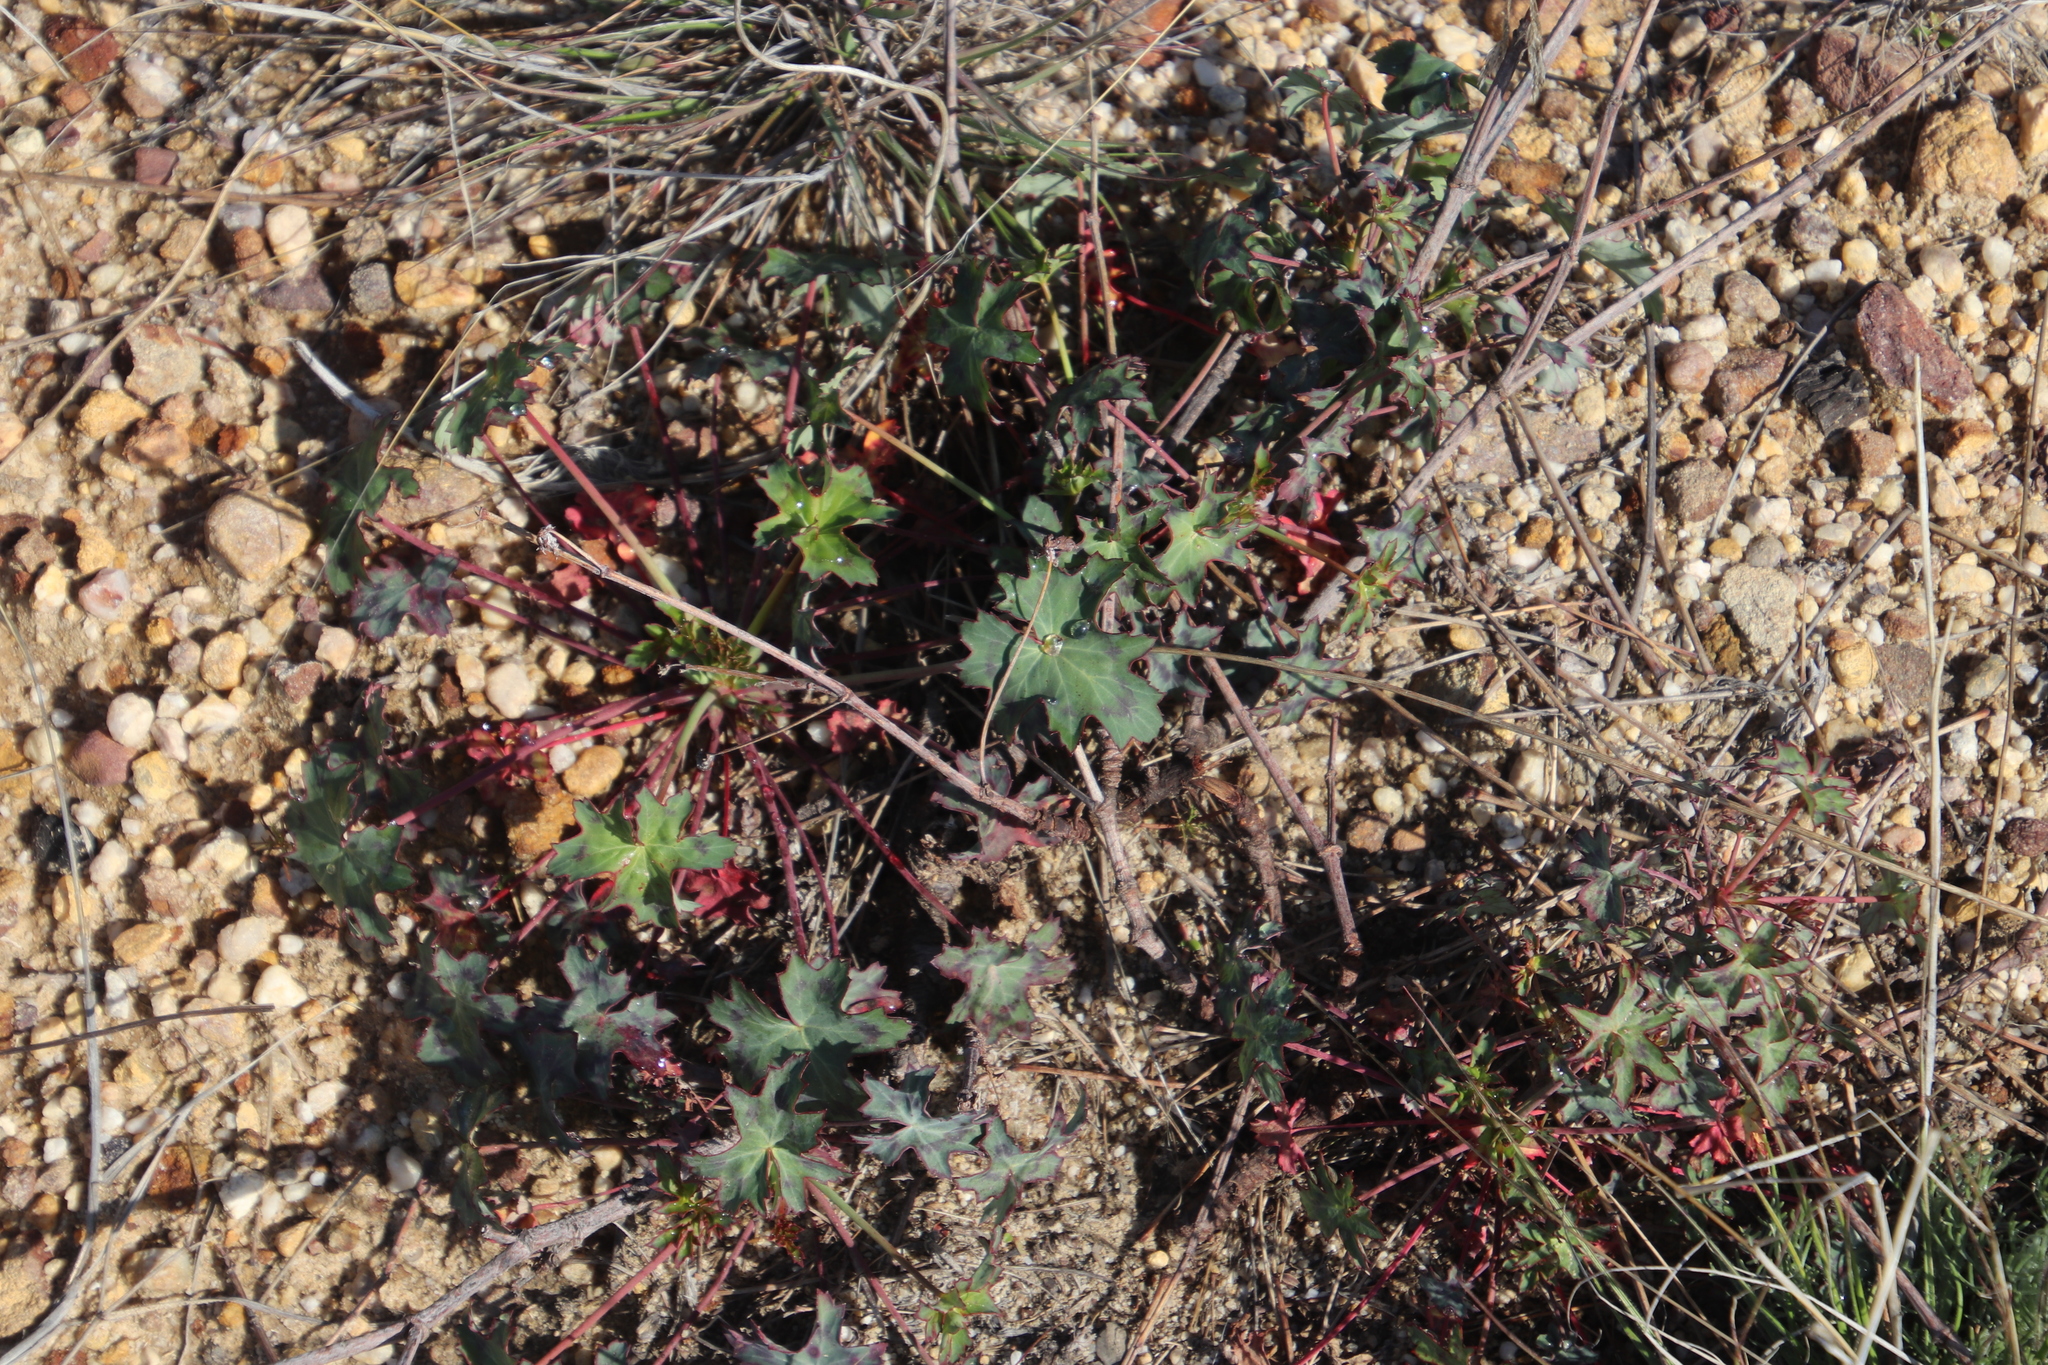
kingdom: Plantae
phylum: Tracheophyta
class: Magnoliopsida
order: Geraniales
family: Geraniaceae
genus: Pelargonium
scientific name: Pelargonium tabulare
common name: Table mountain pelargonium
